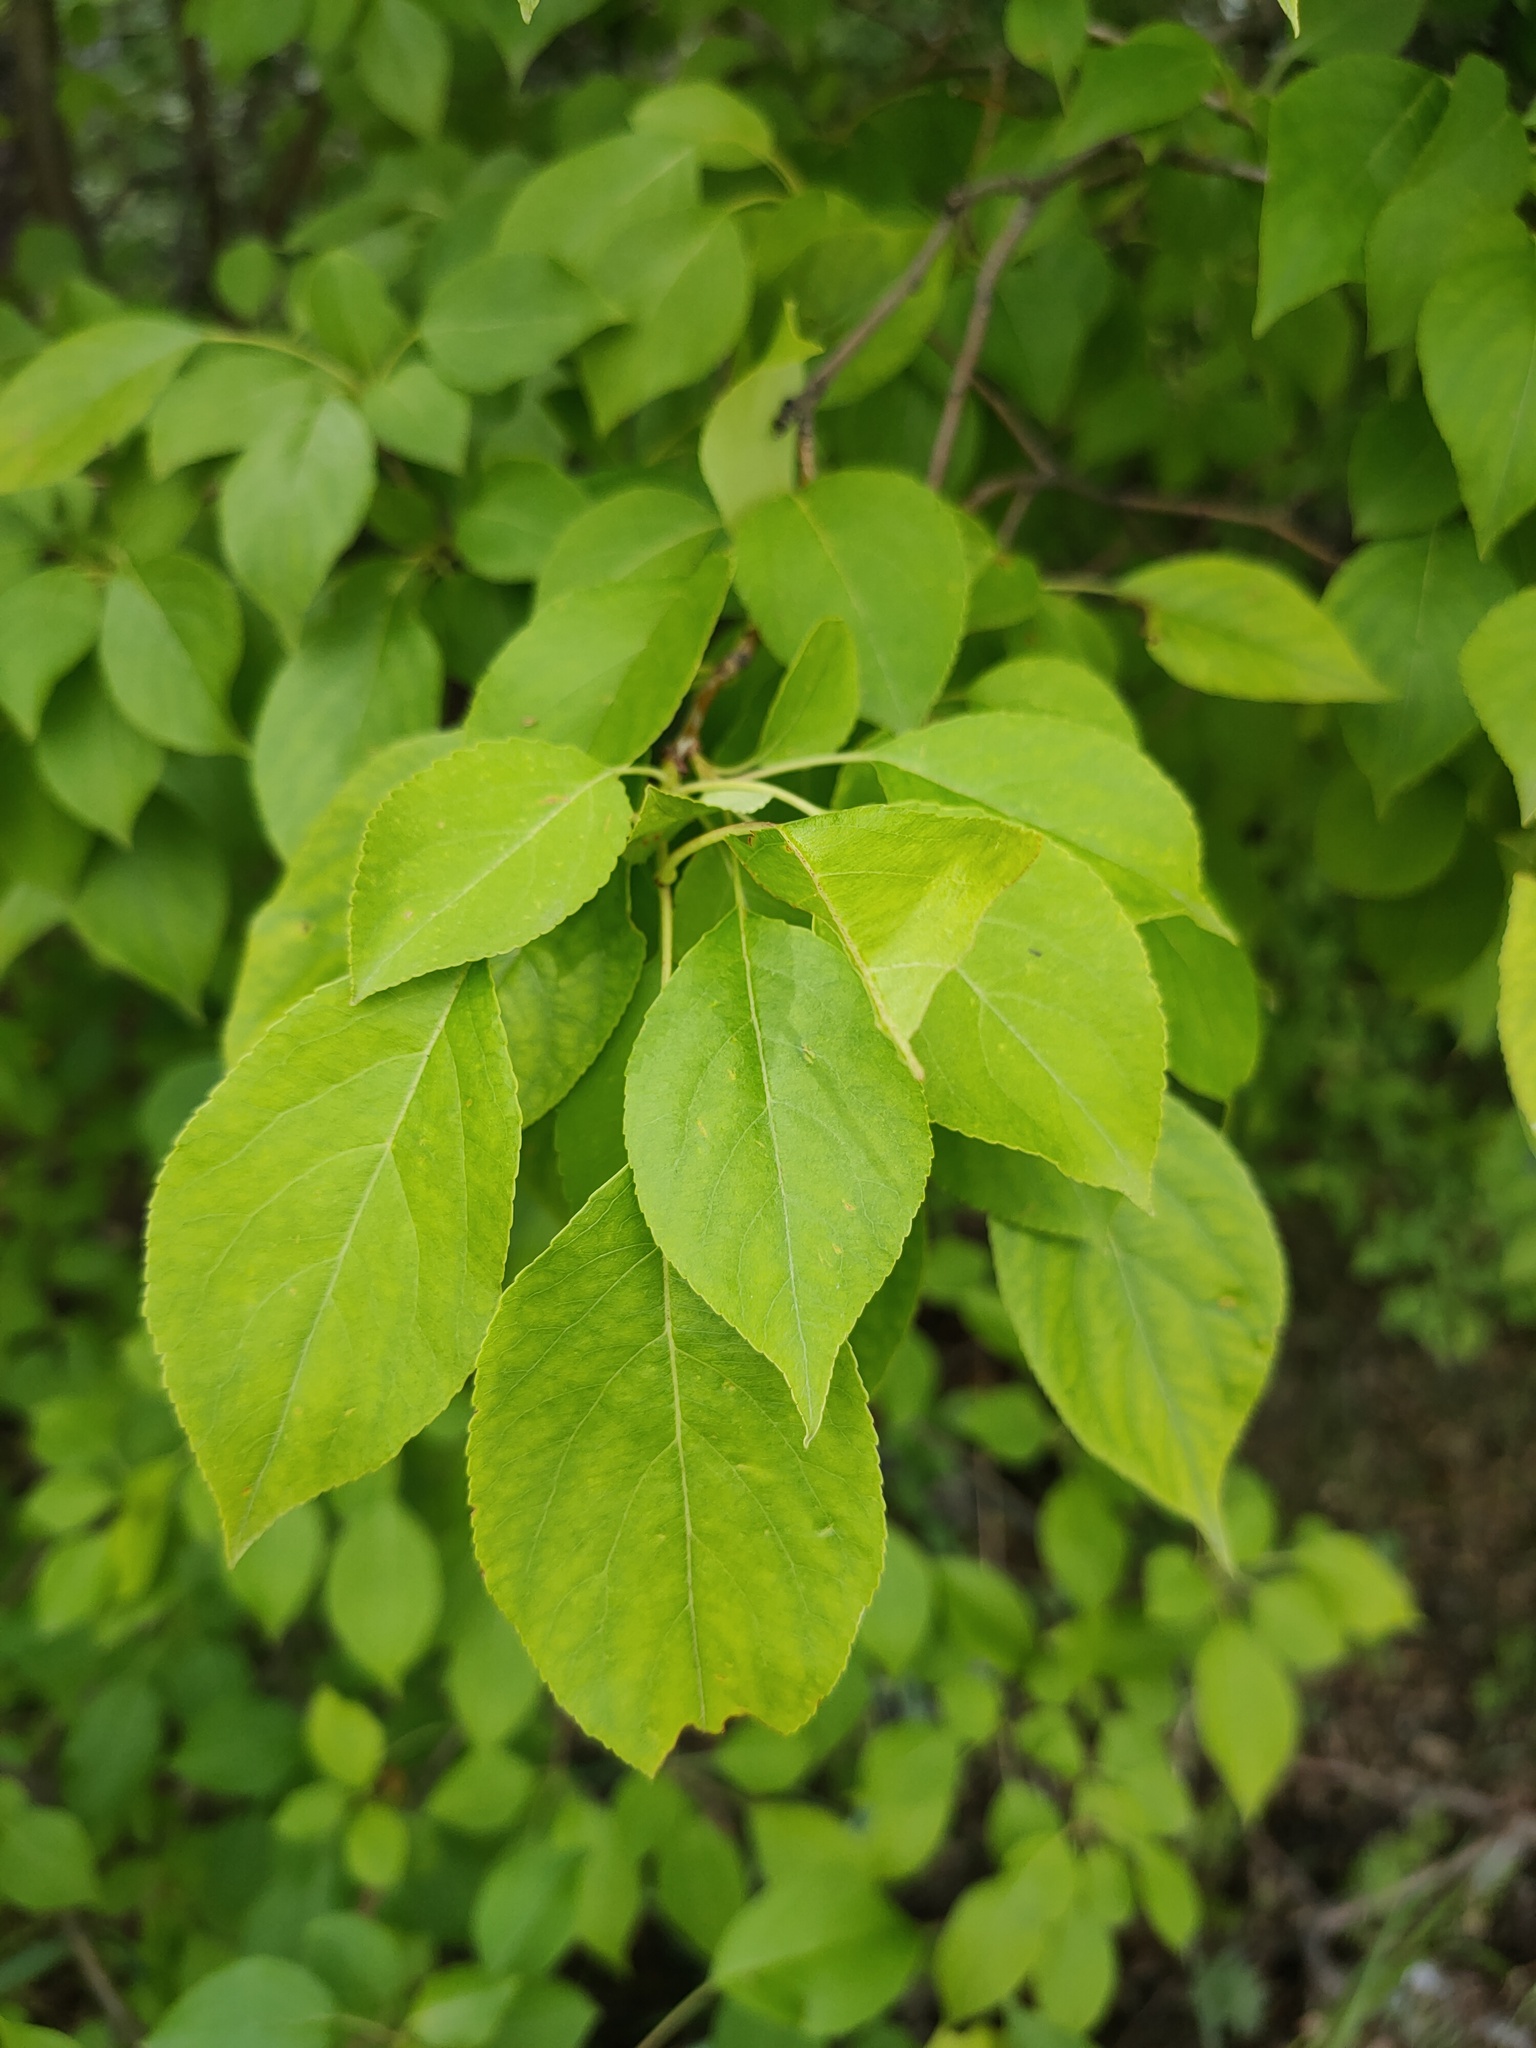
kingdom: Plantae
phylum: Tracheophyta
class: Magnoliopsida
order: Rosales
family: Rosaceae
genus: Malus
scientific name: Malus baccata
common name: Siberian crab
